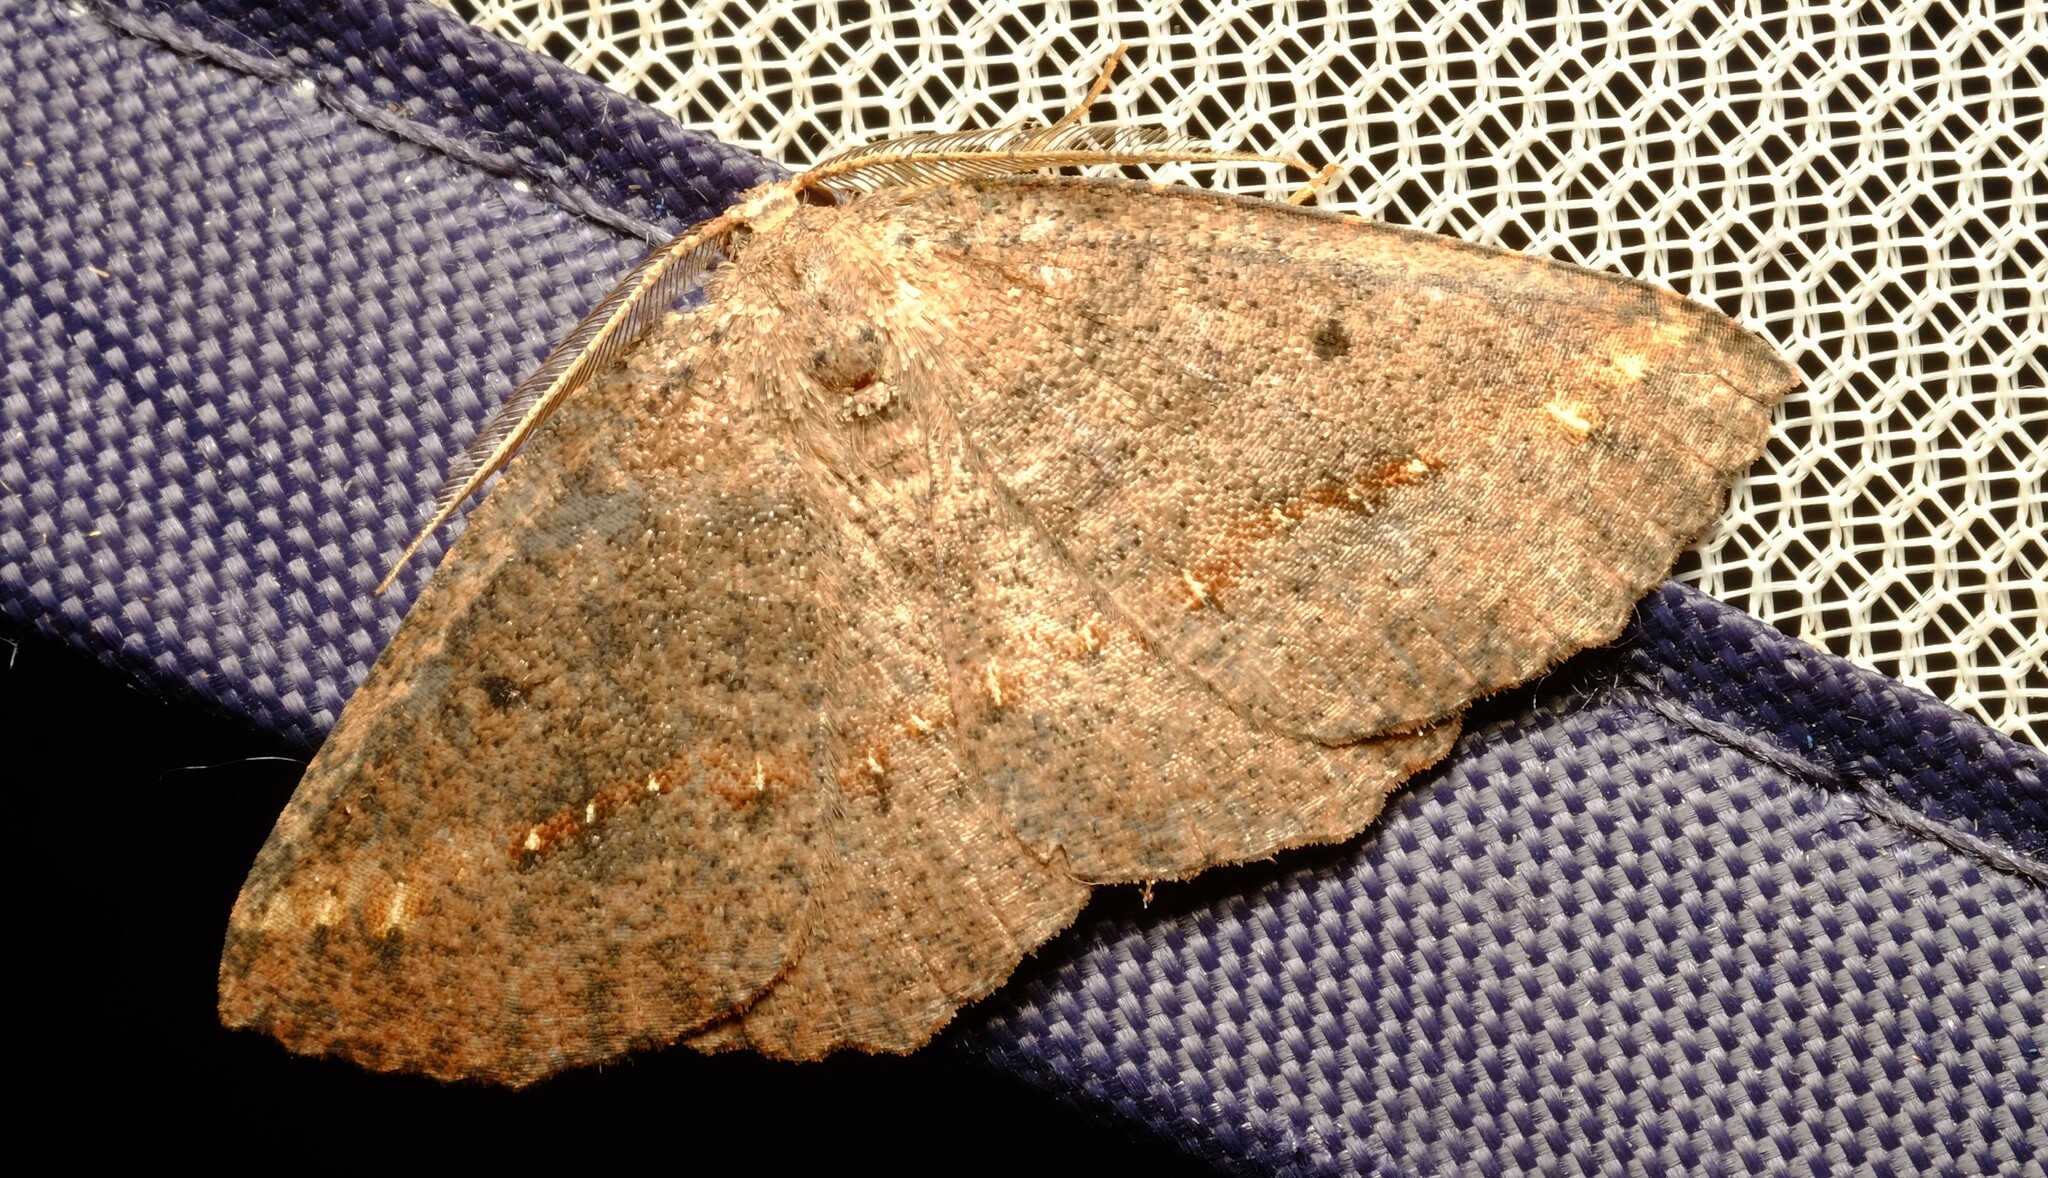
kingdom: Animalia
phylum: Arthropoda
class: Insecta
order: Lepidoptera
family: Geometridae
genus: Xenomusa
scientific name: Xenomusa
